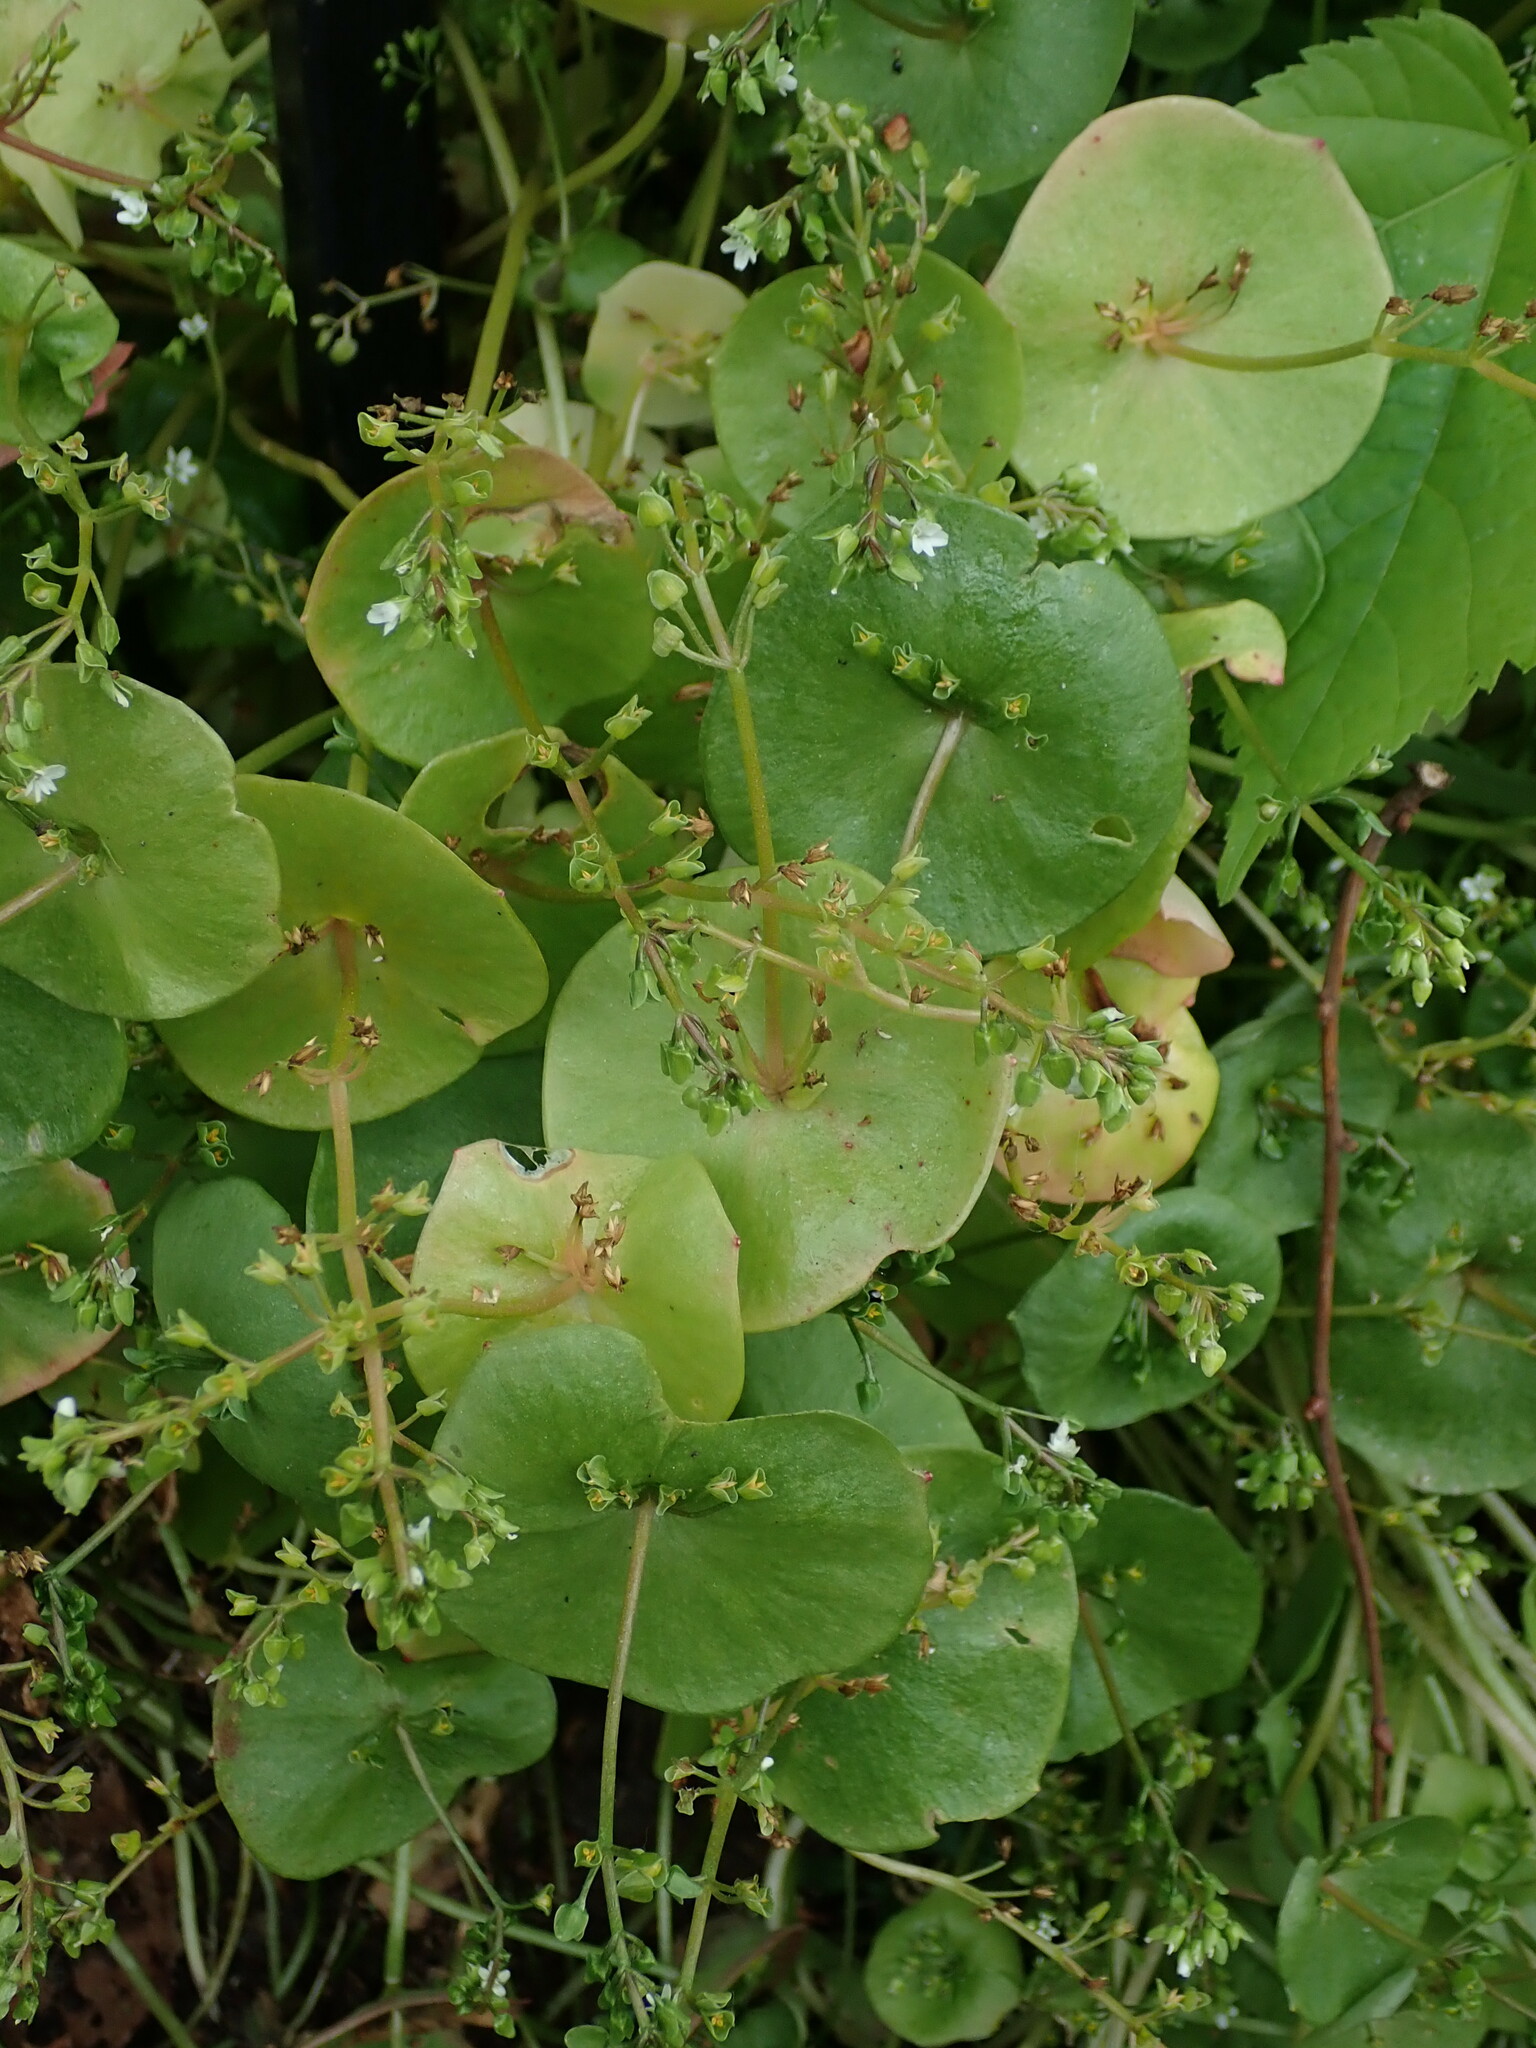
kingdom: Plantae
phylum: Tracheophyta
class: Magnoliopsida
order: Caryophyllales
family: Montiaceae
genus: Claytonia
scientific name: Claytonia perfoliata
